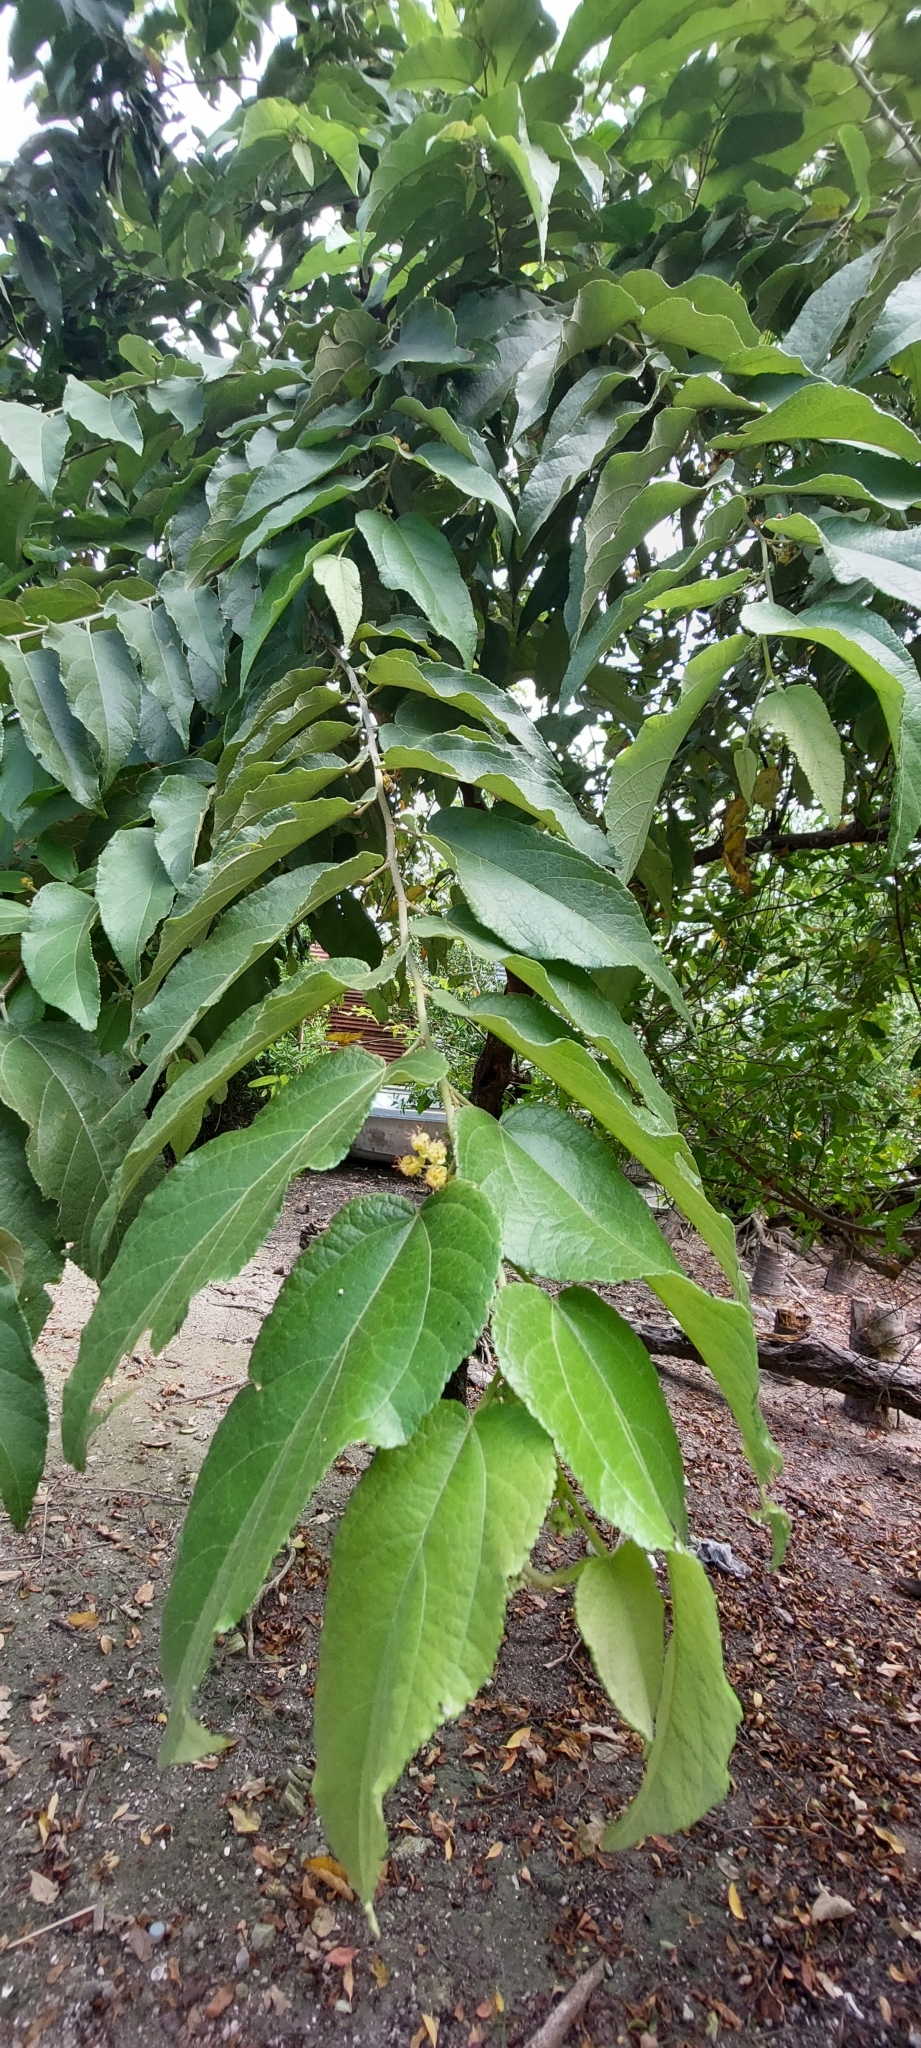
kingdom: Plantae
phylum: Tracheophyta
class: Magnoliopsida
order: Malvales
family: Malvaceae
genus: Guazuma
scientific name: Guazuma ulmifolia
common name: Bastard-cedar
